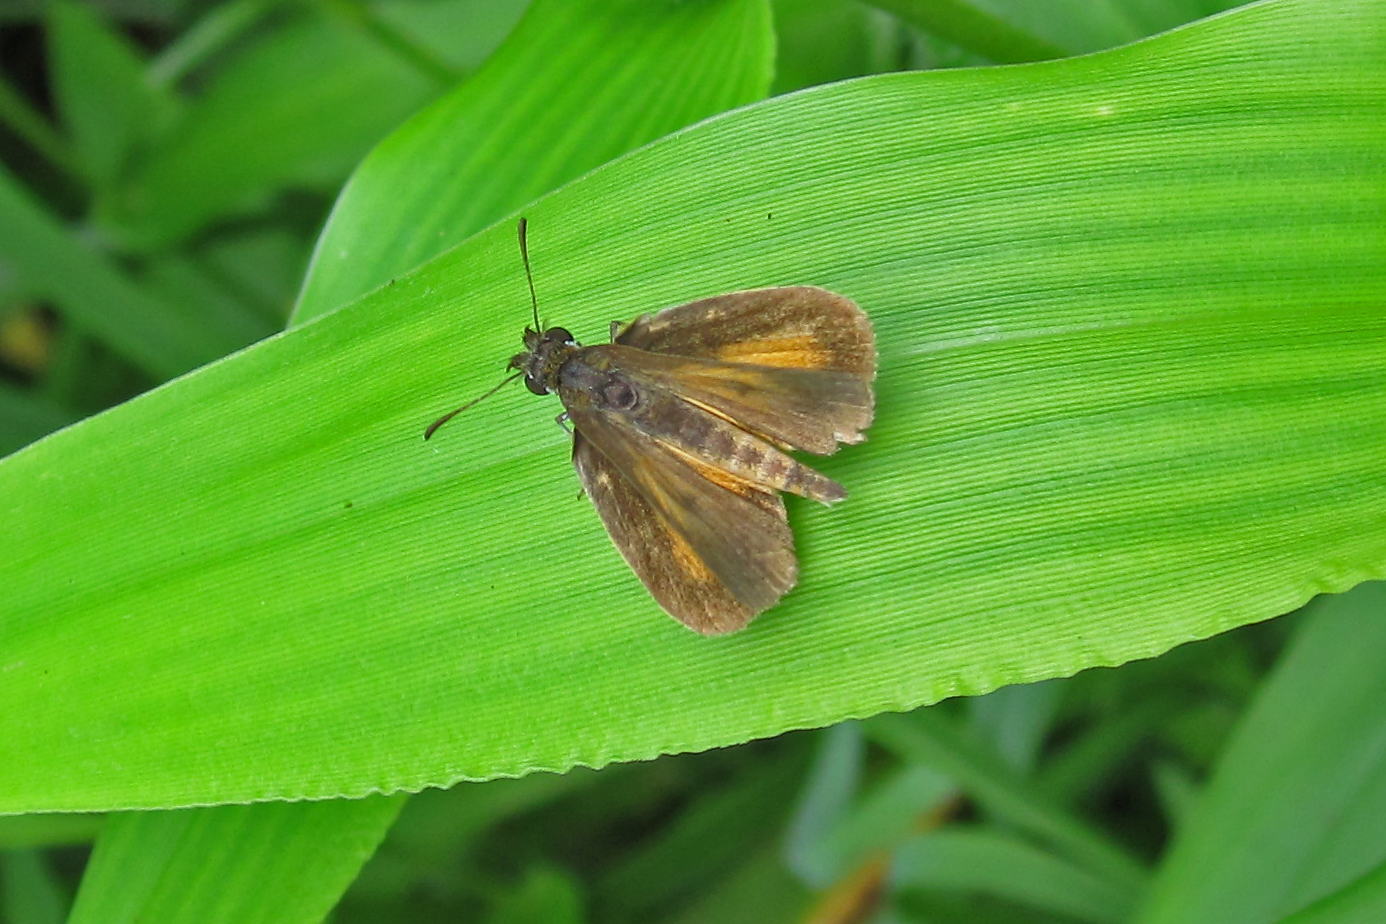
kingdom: Animalia
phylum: Arthropoda
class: Insecta
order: Lepidoptera
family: Hesperiidae
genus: Ancyloxypha
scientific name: Ancyloxypha numitor
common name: Least skipper
